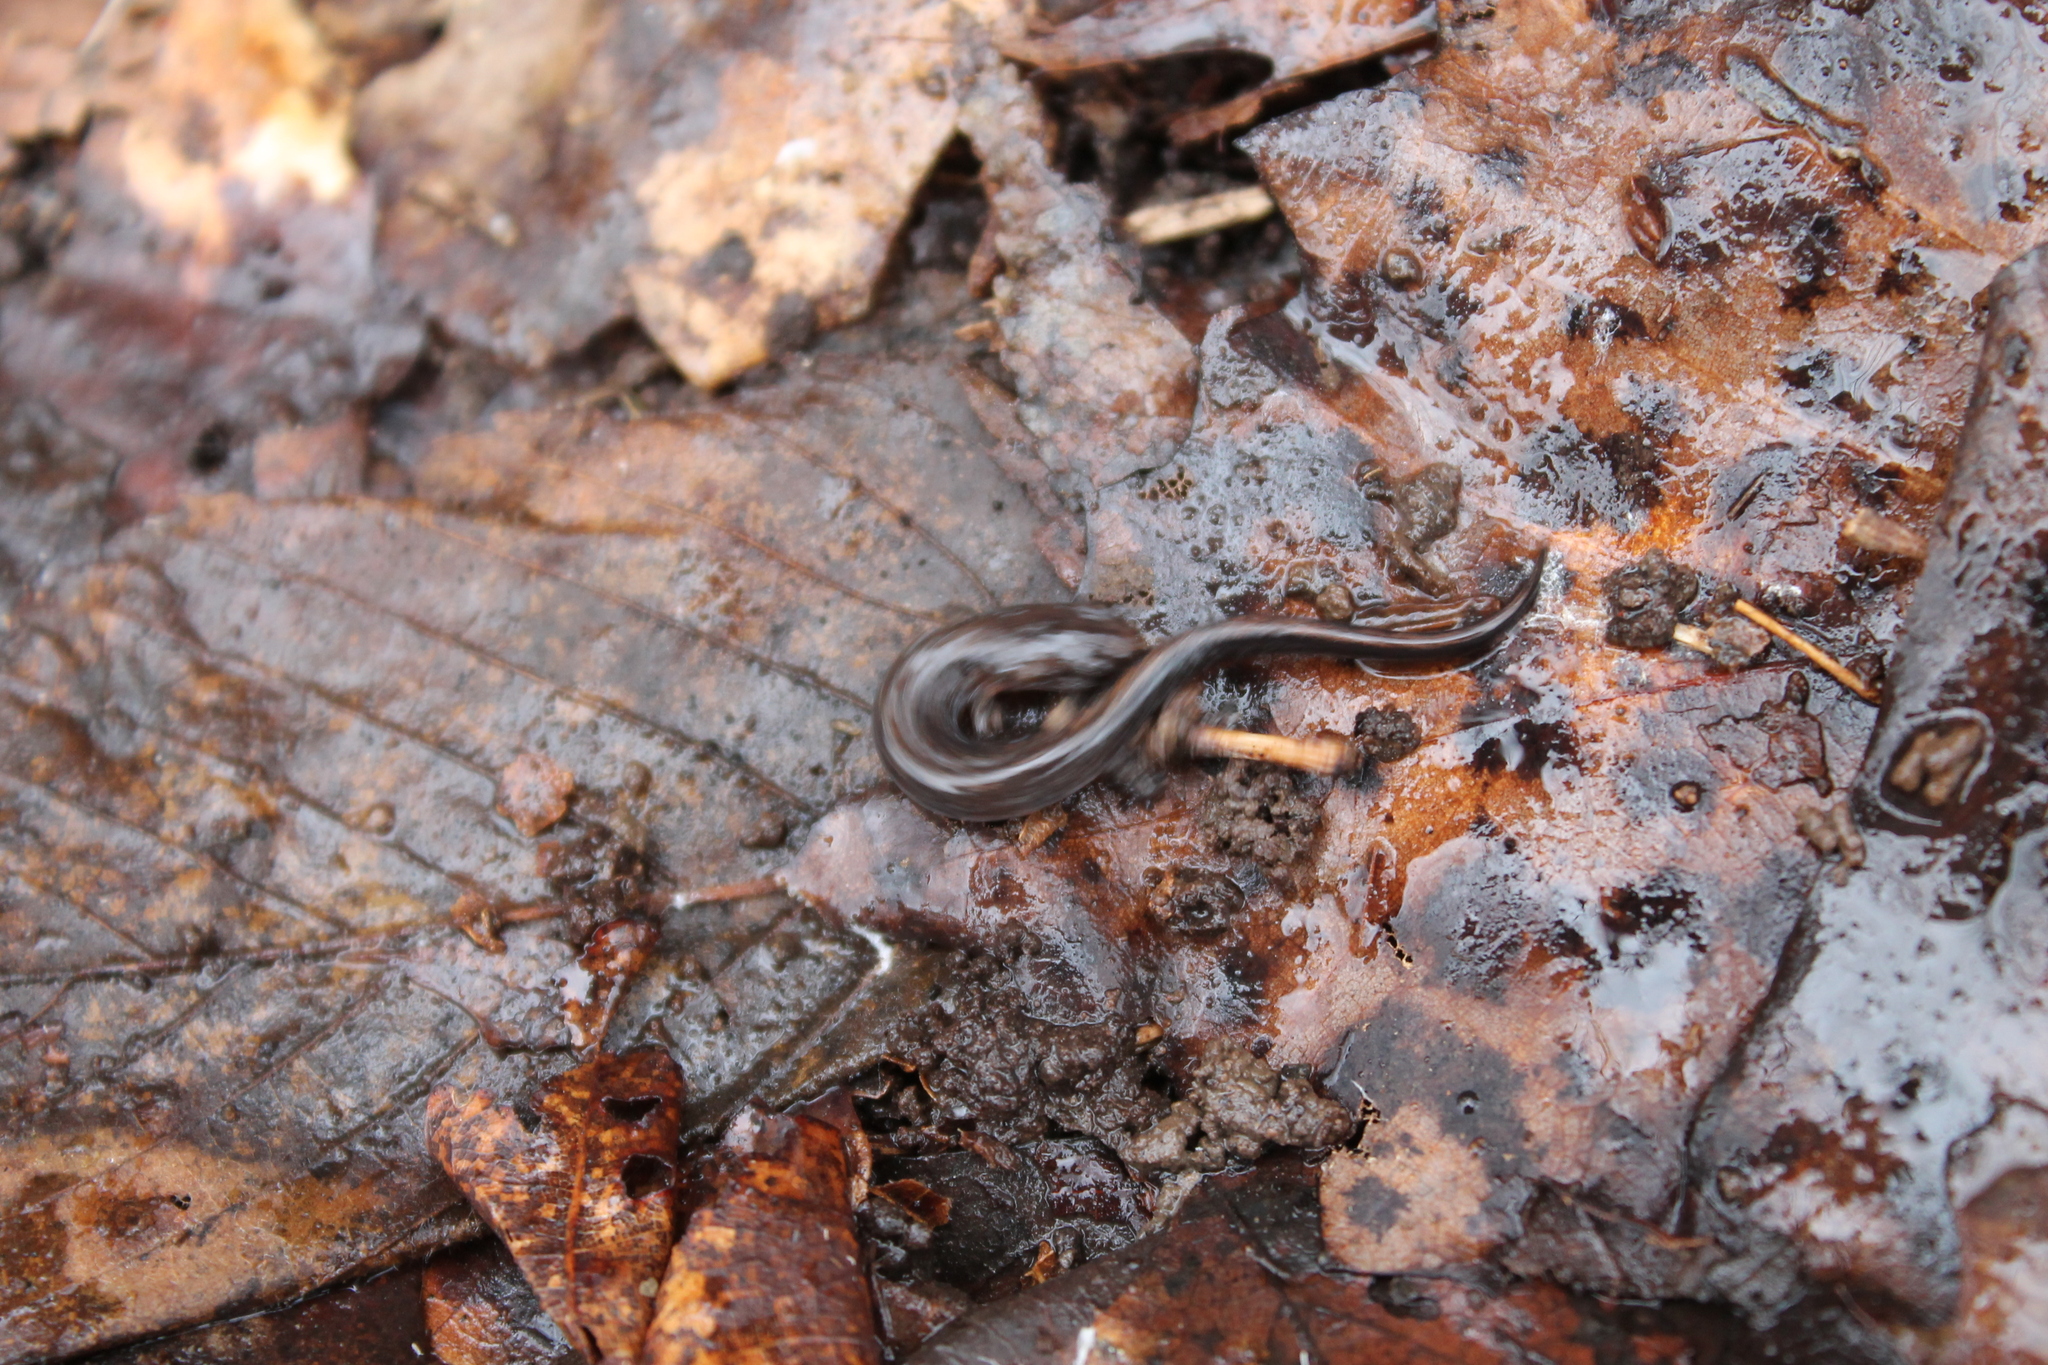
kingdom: Animalia
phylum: Chordata
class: Amphibia
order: Caudata
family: Plethodontidae
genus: Plethodon
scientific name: Plethodon dorsalis
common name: Northern zigzag salamander
